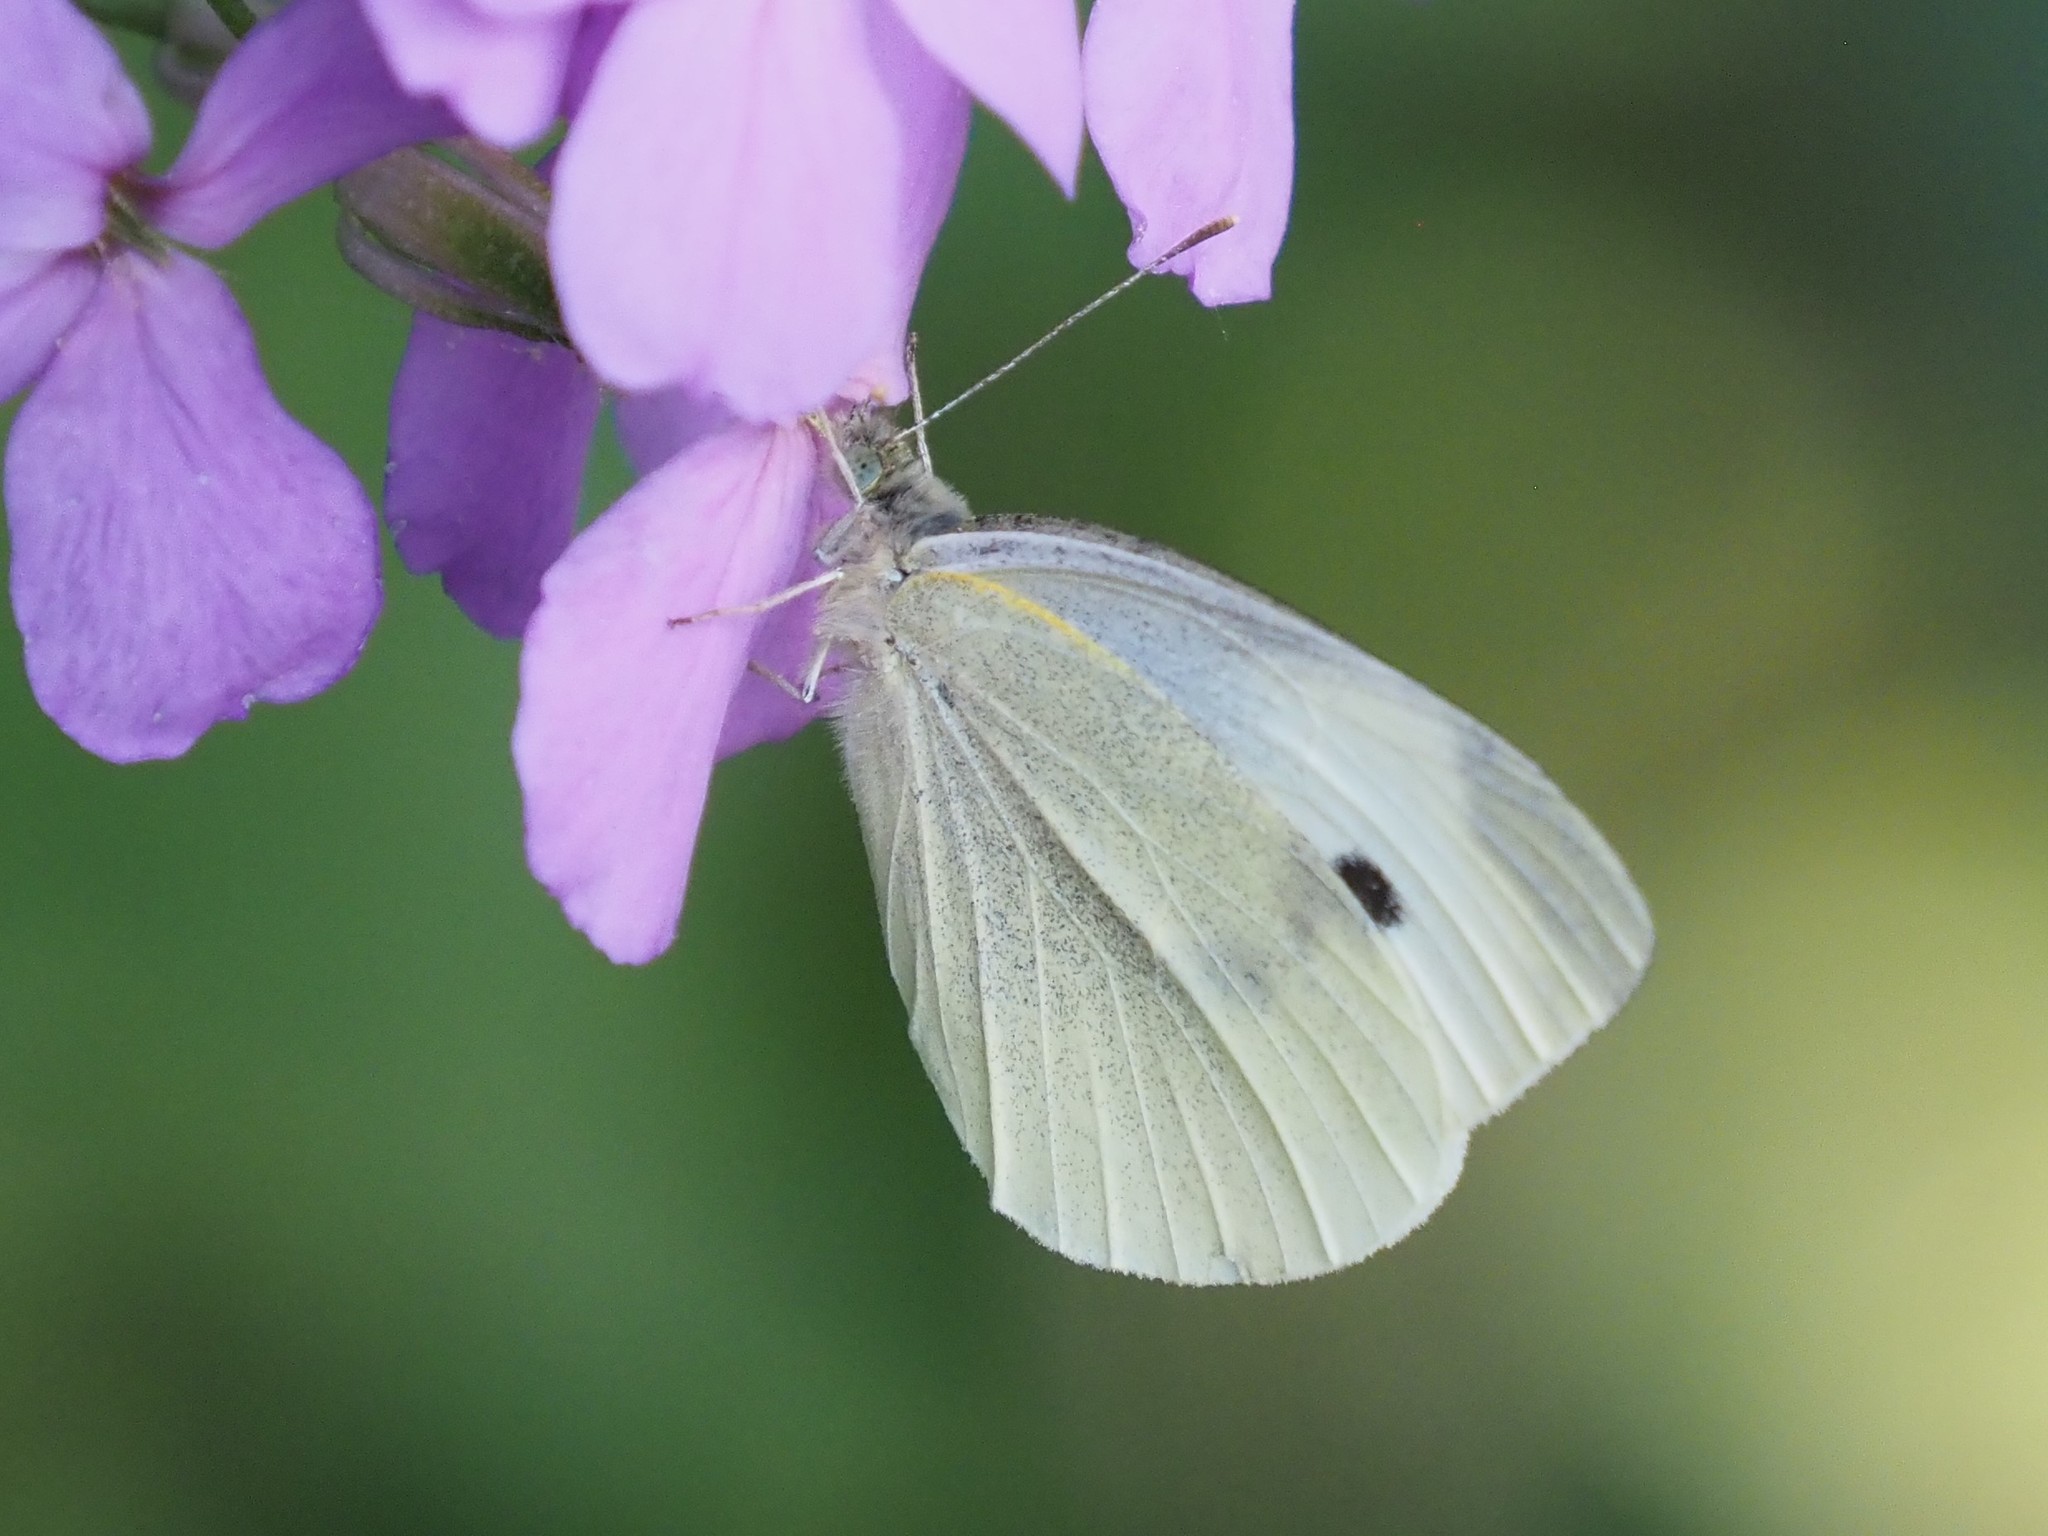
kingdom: Animalia
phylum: Arthropoda
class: Insecta
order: Lepidoptera
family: Pieridae
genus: Pieris
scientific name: Pieris rapae
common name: Small white
